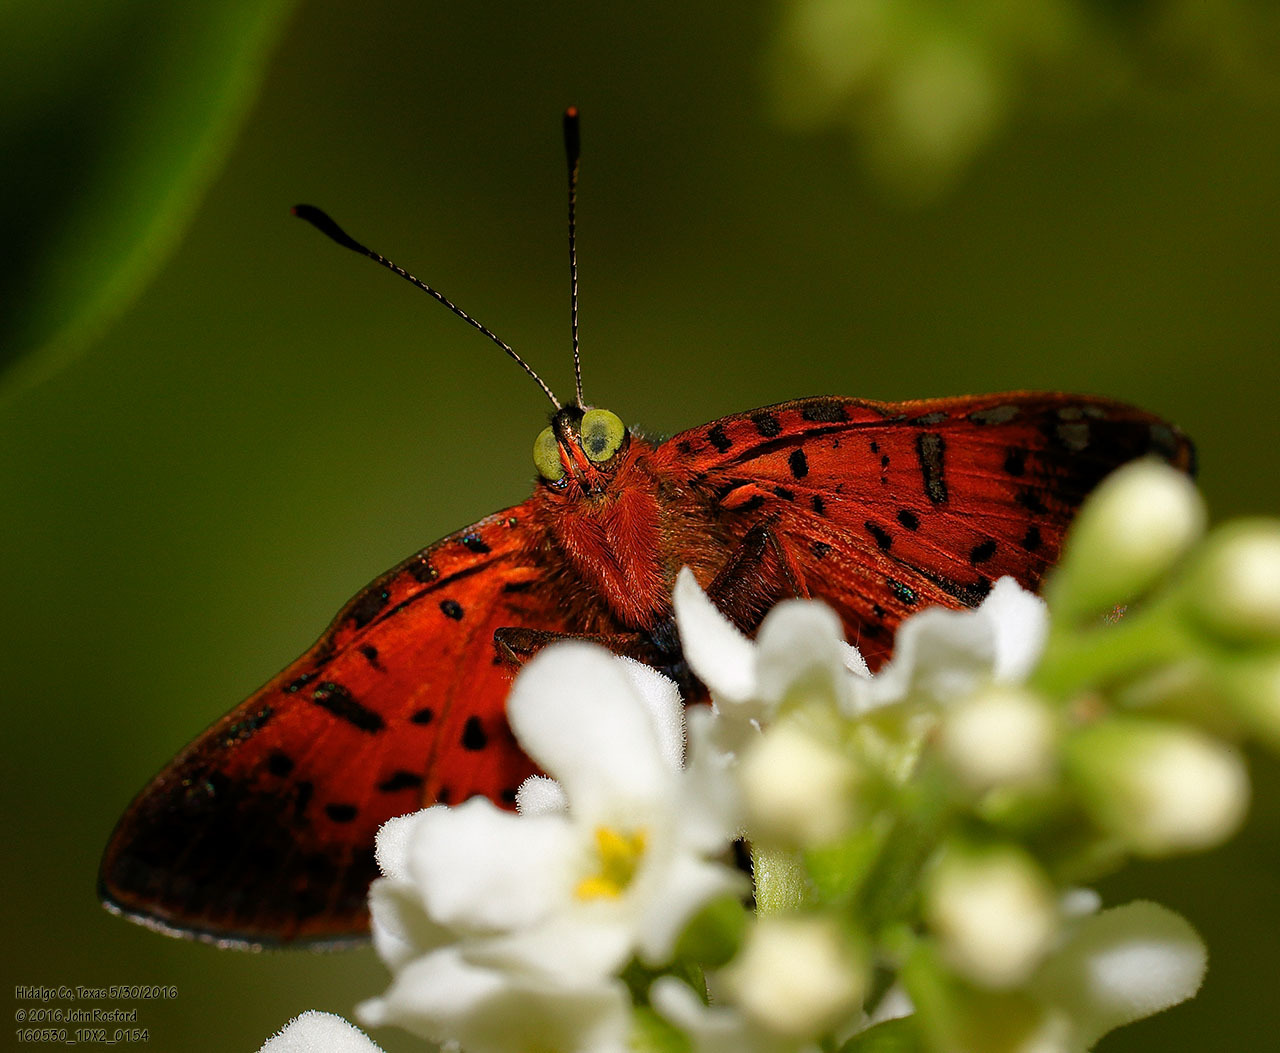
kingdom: Animalia
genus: Caria
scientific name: Caria ino
